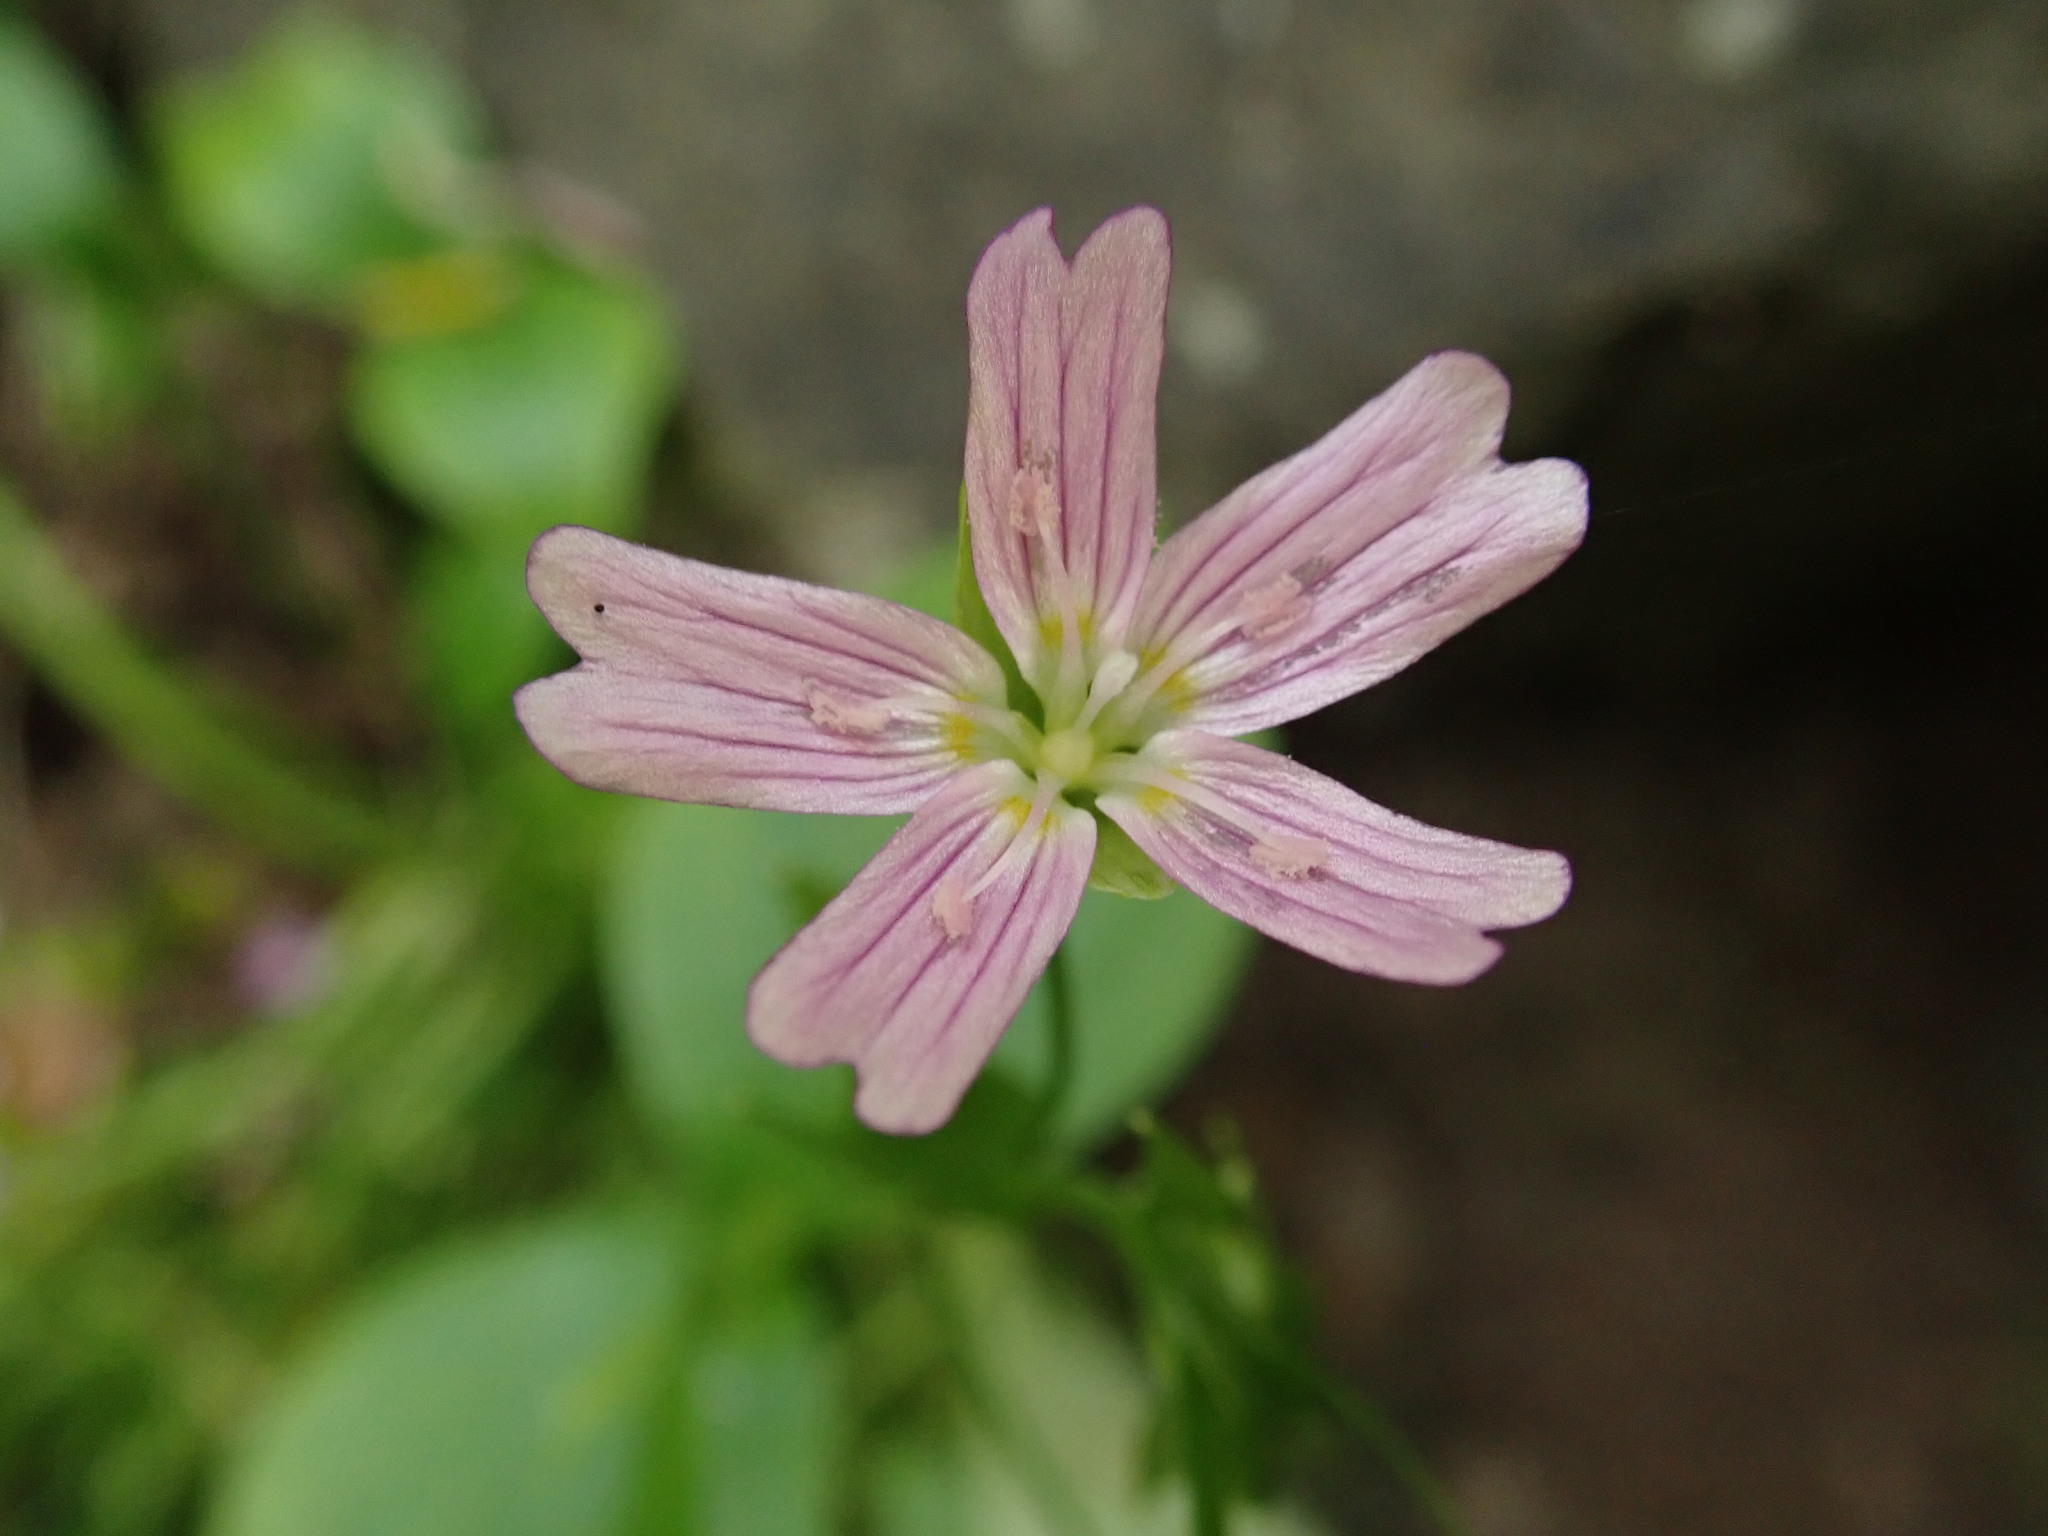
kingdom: Plantae
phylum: Tracheophyta
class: Magnoliopsida
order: Caryophyllales
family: Montiaceae
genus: Claytonia
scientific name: Claytonia sibirica
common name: Pink purslane
